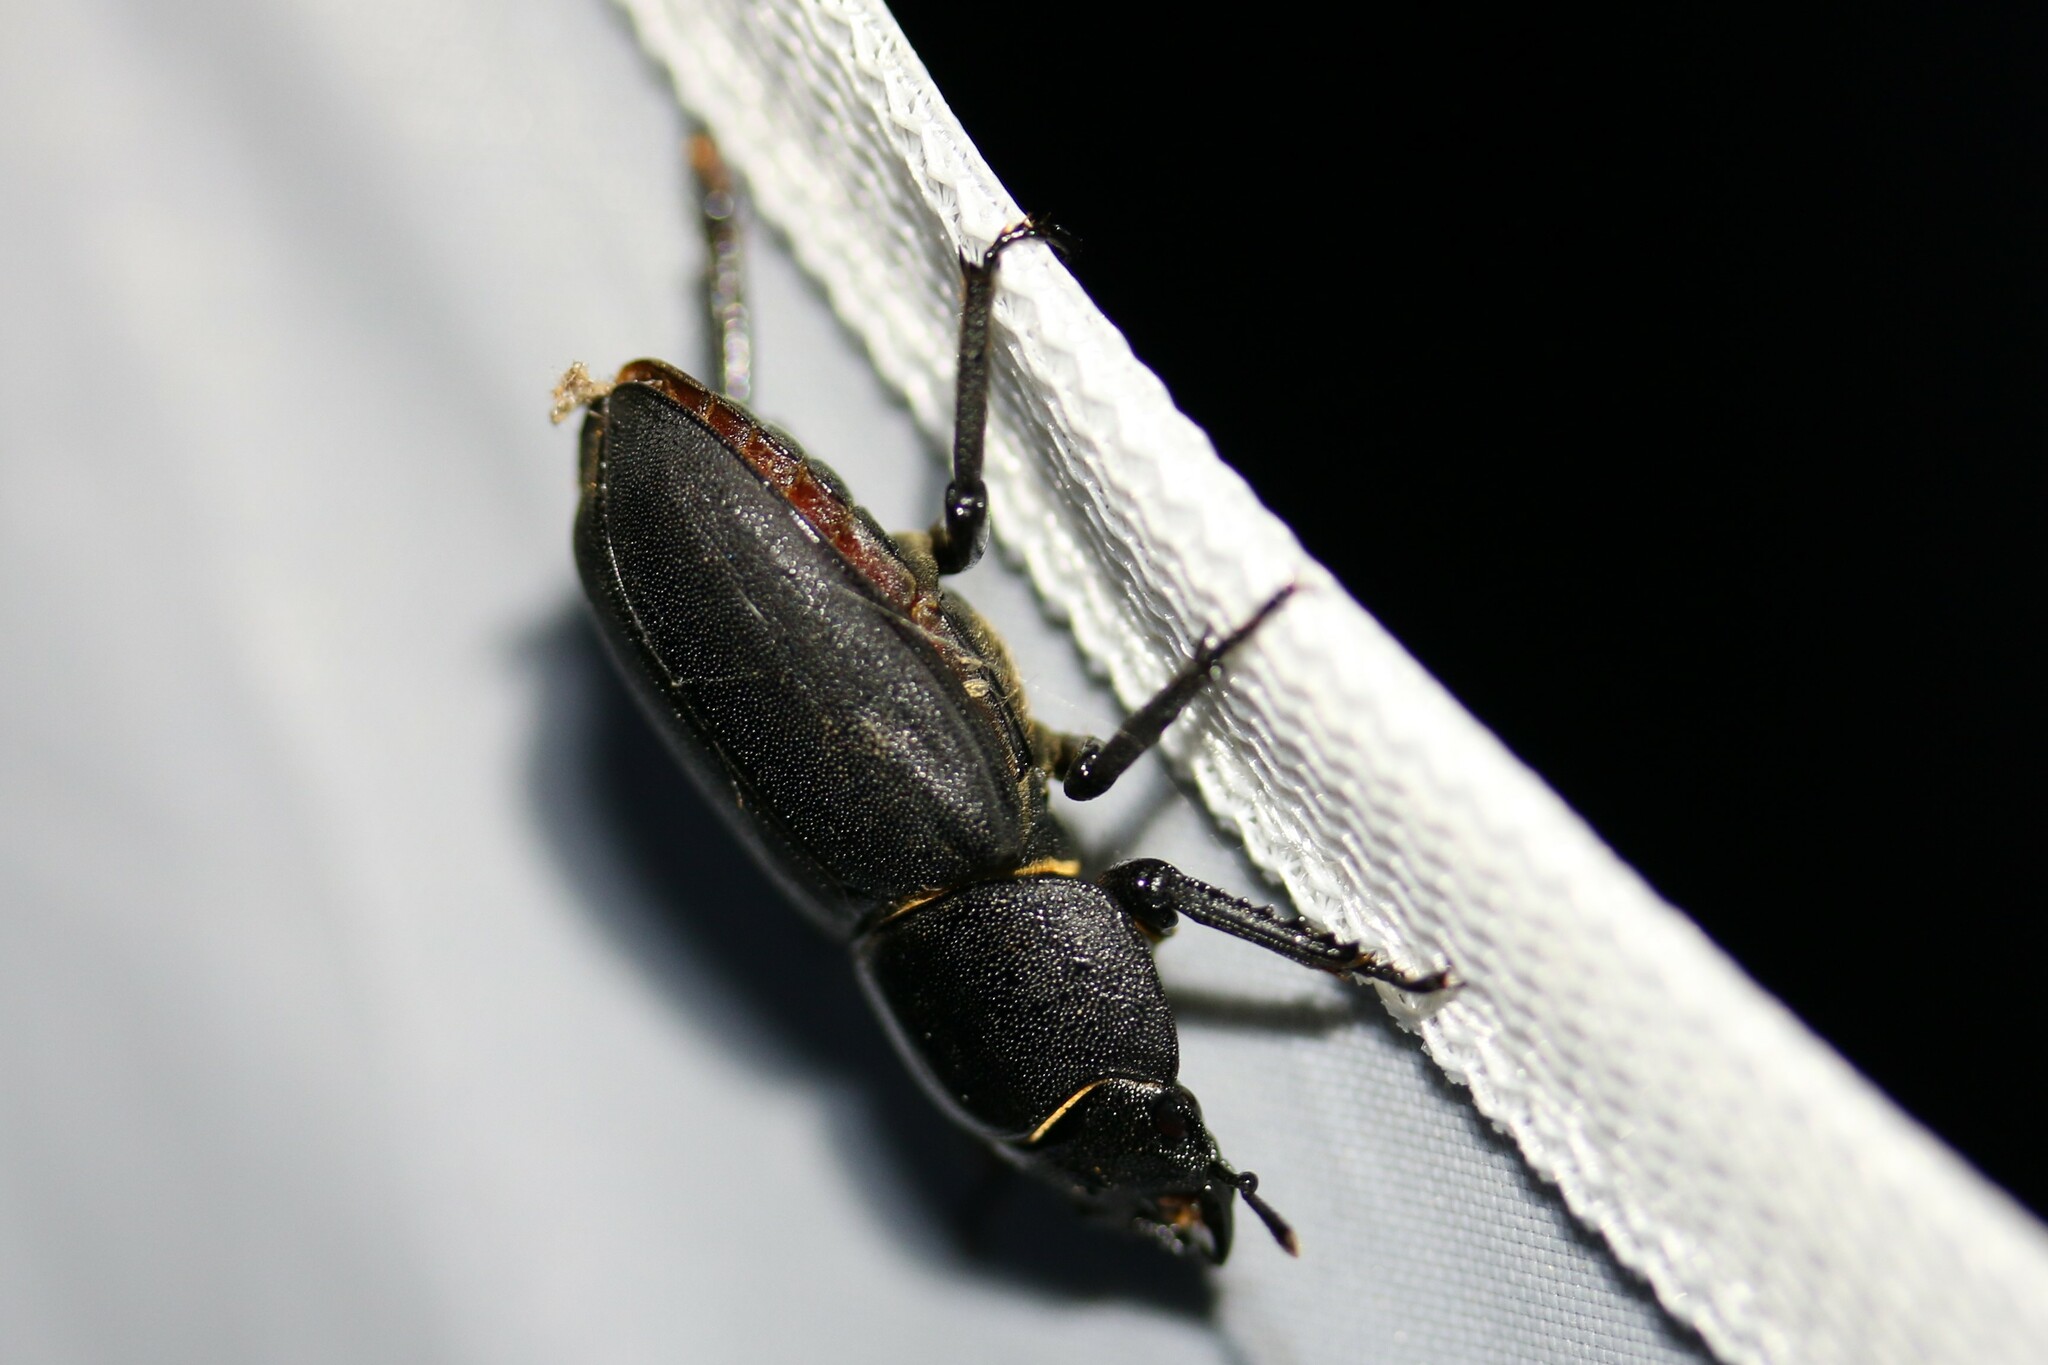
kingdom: Animalia
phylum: Arthropoda
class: Insecta
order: Coleoptera
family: Lucanidae
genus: Dorcus
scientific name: Dorcus parallelipipedus
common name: Lesser stag beetle
